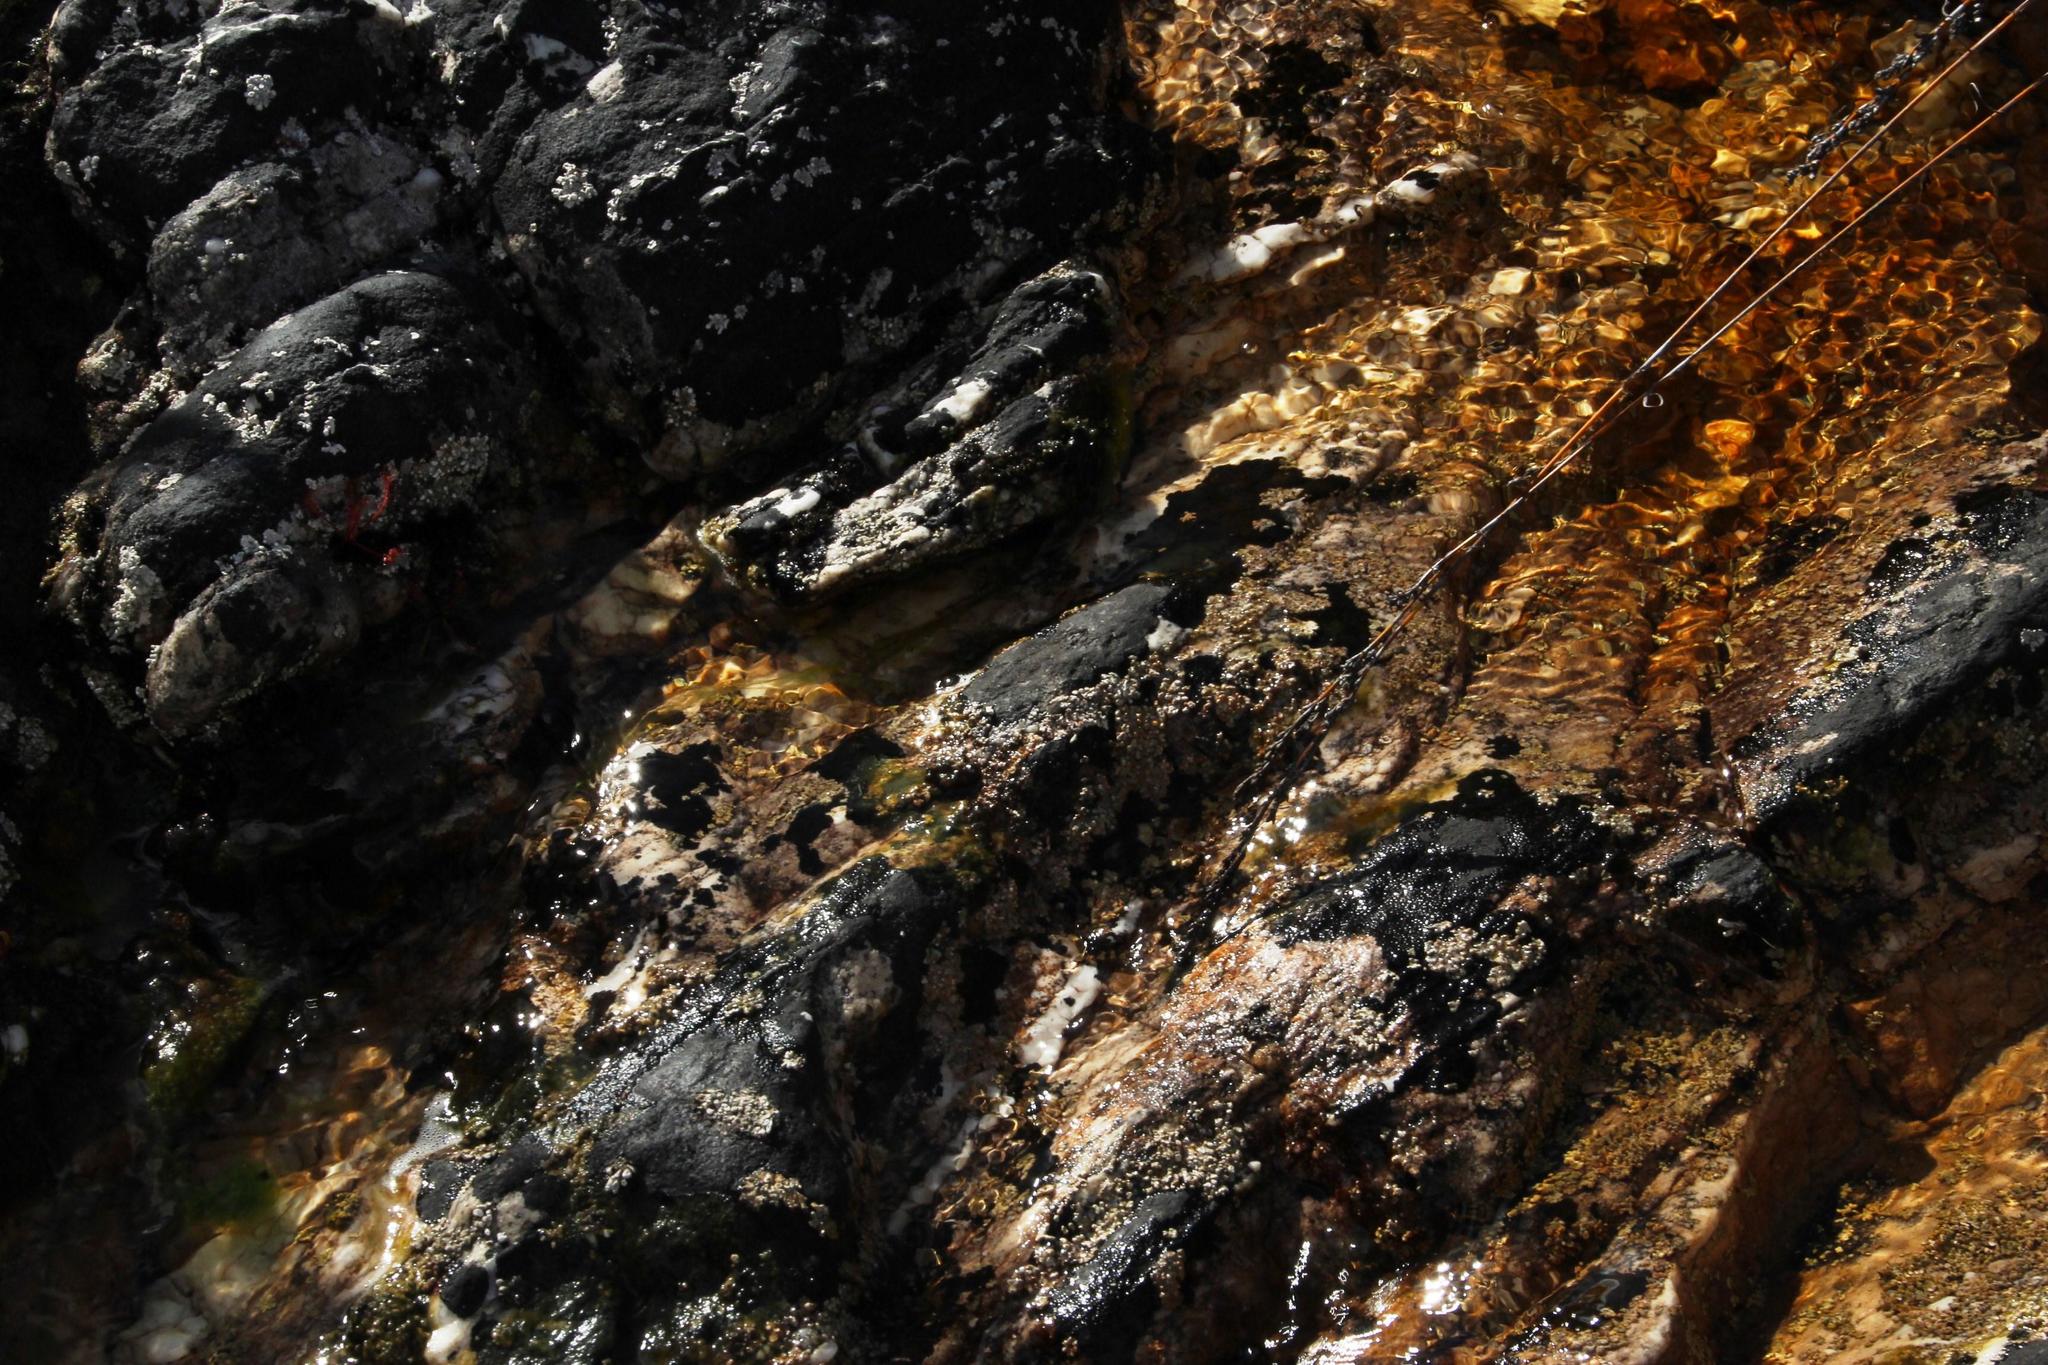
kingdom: Fungi
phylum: Ascomycota
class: Lecanoromycetes
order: Pertusariales
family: Icmadophilaceae
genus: Siphula
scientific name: Siphula verrucigera
